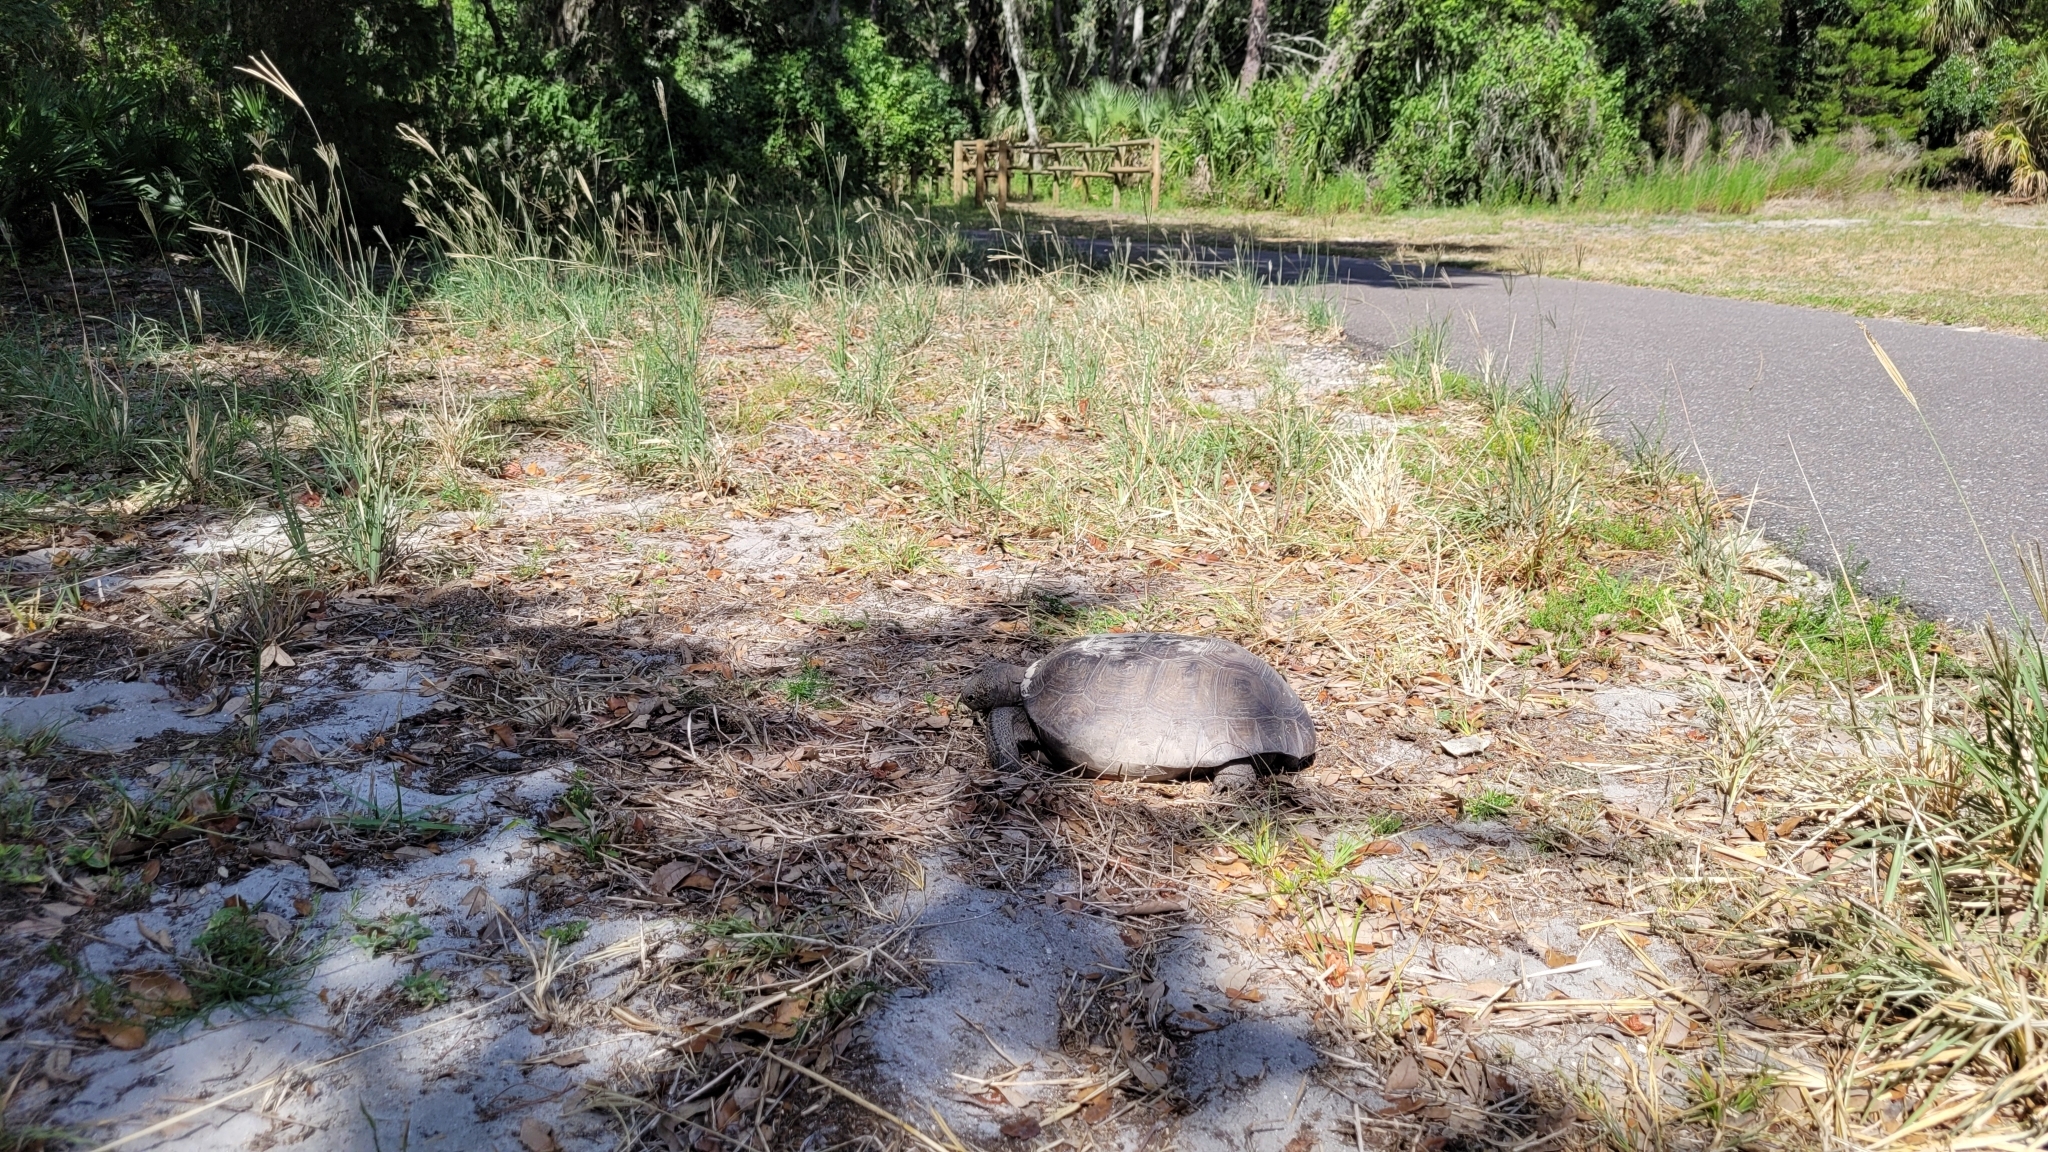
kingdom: Animalia
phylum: Chordata
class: Testudines
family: Testudinidae
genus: Gopherus
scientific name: Gopherus polyphemus
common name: Florida gopher tortoise
